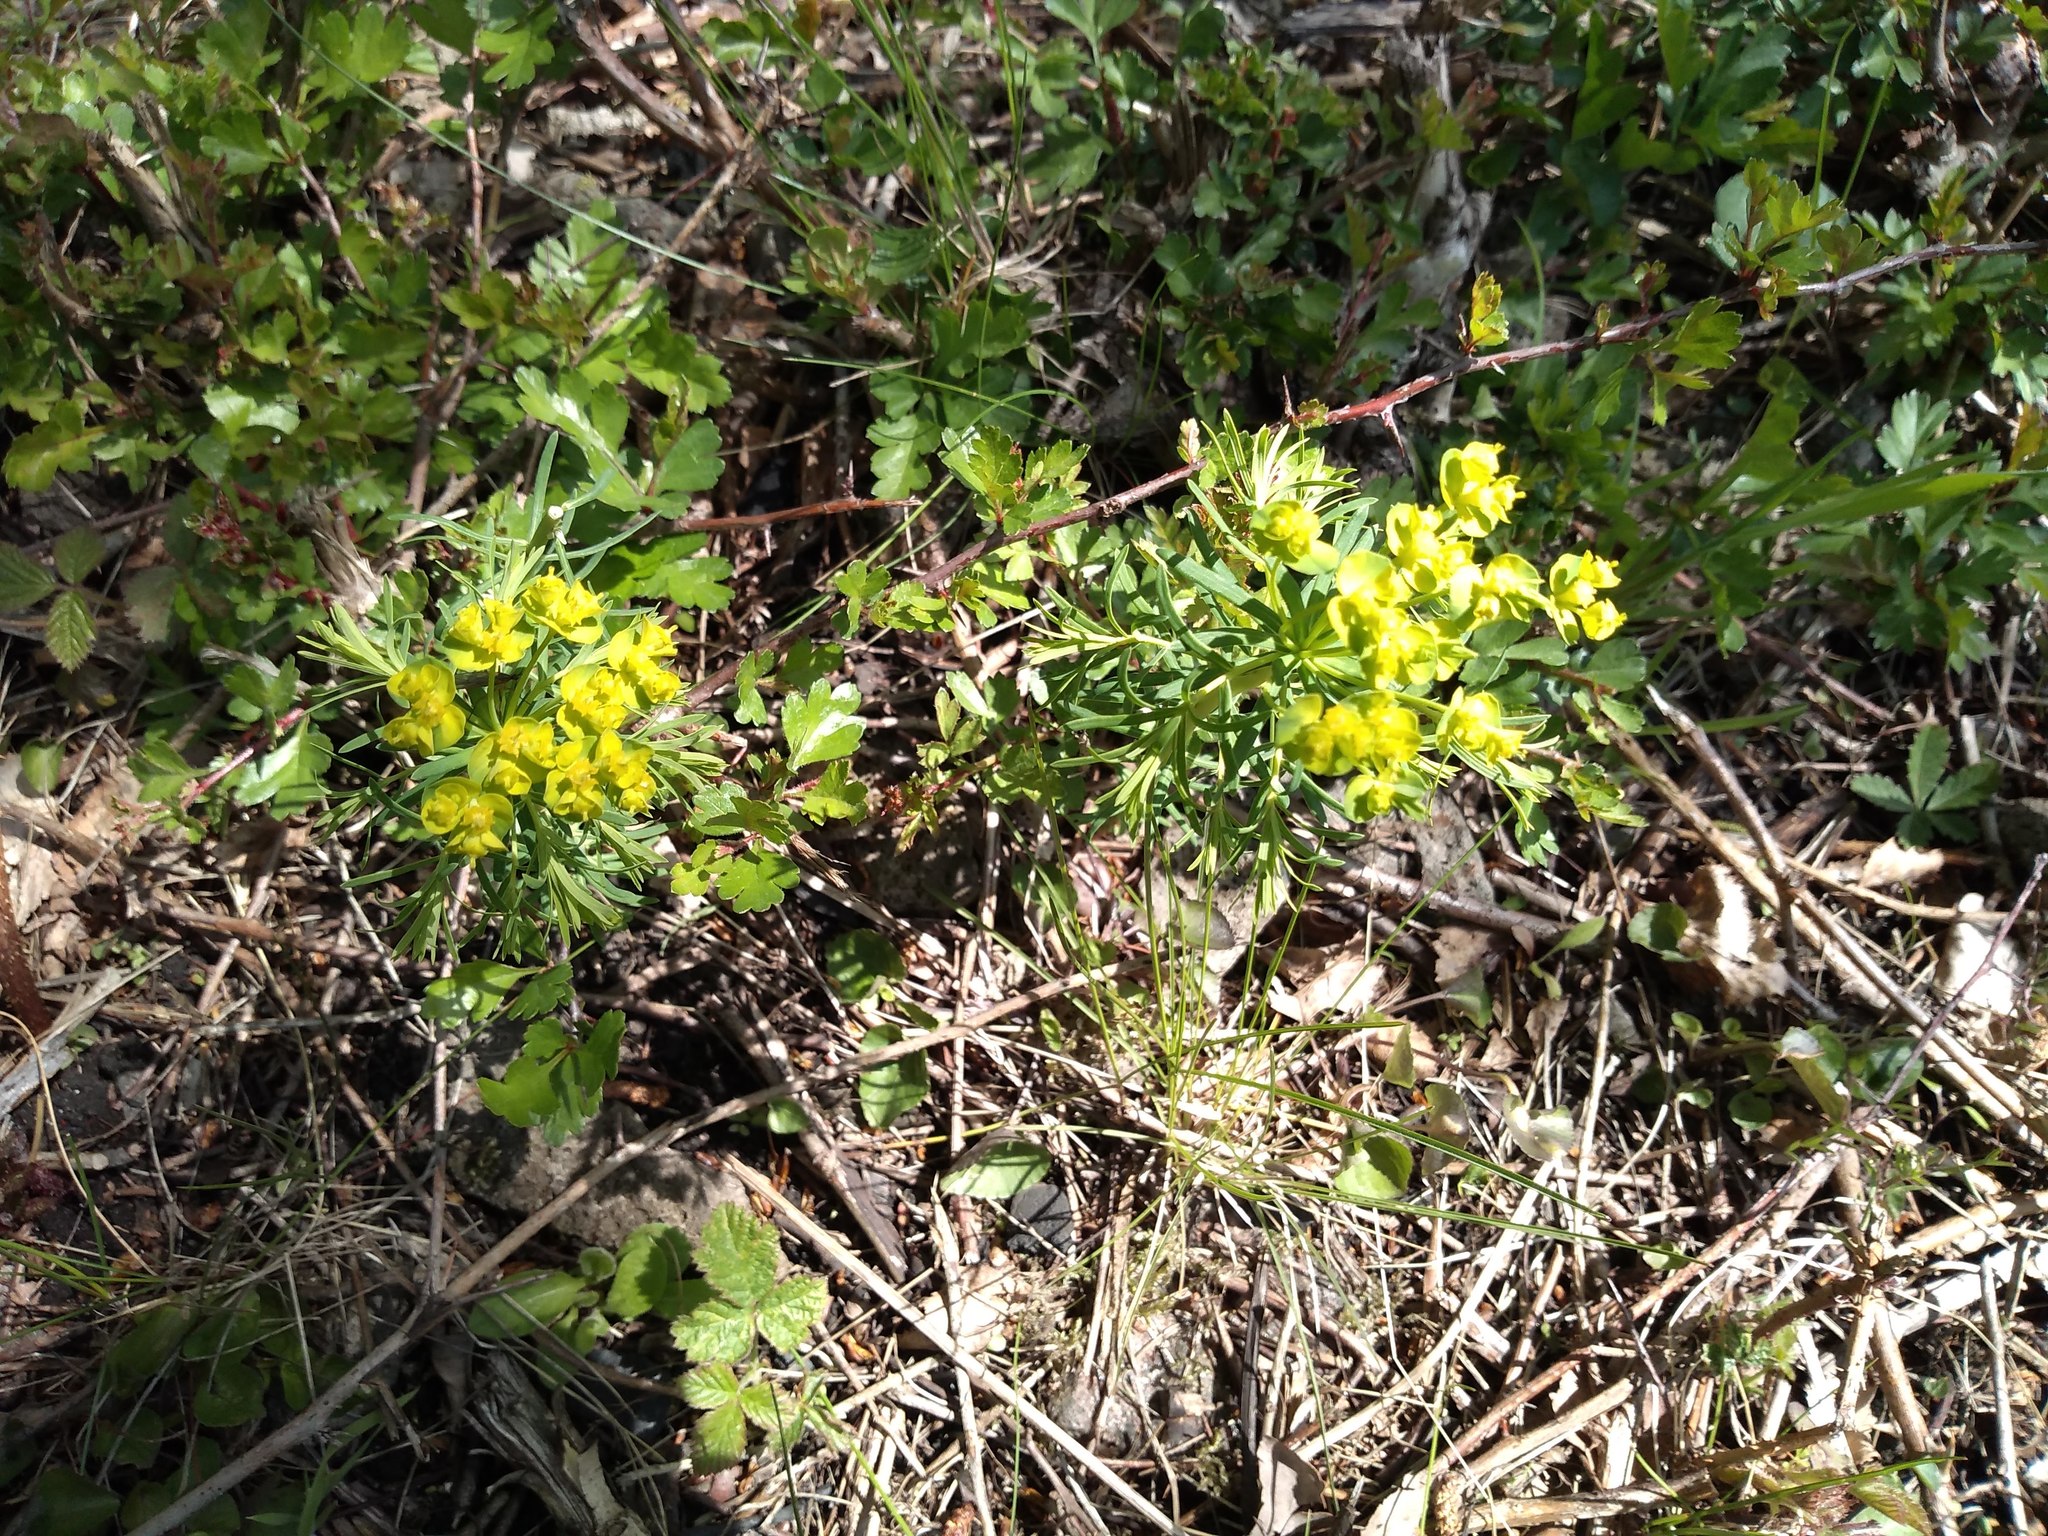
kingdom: Plantae
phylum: Tracheophyta
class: Magnoliopsida
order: Malpighiales
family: Euphorbiaceae
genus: Euphorbia
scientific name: Euphorbia cyparissias
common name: Cypress spurge
